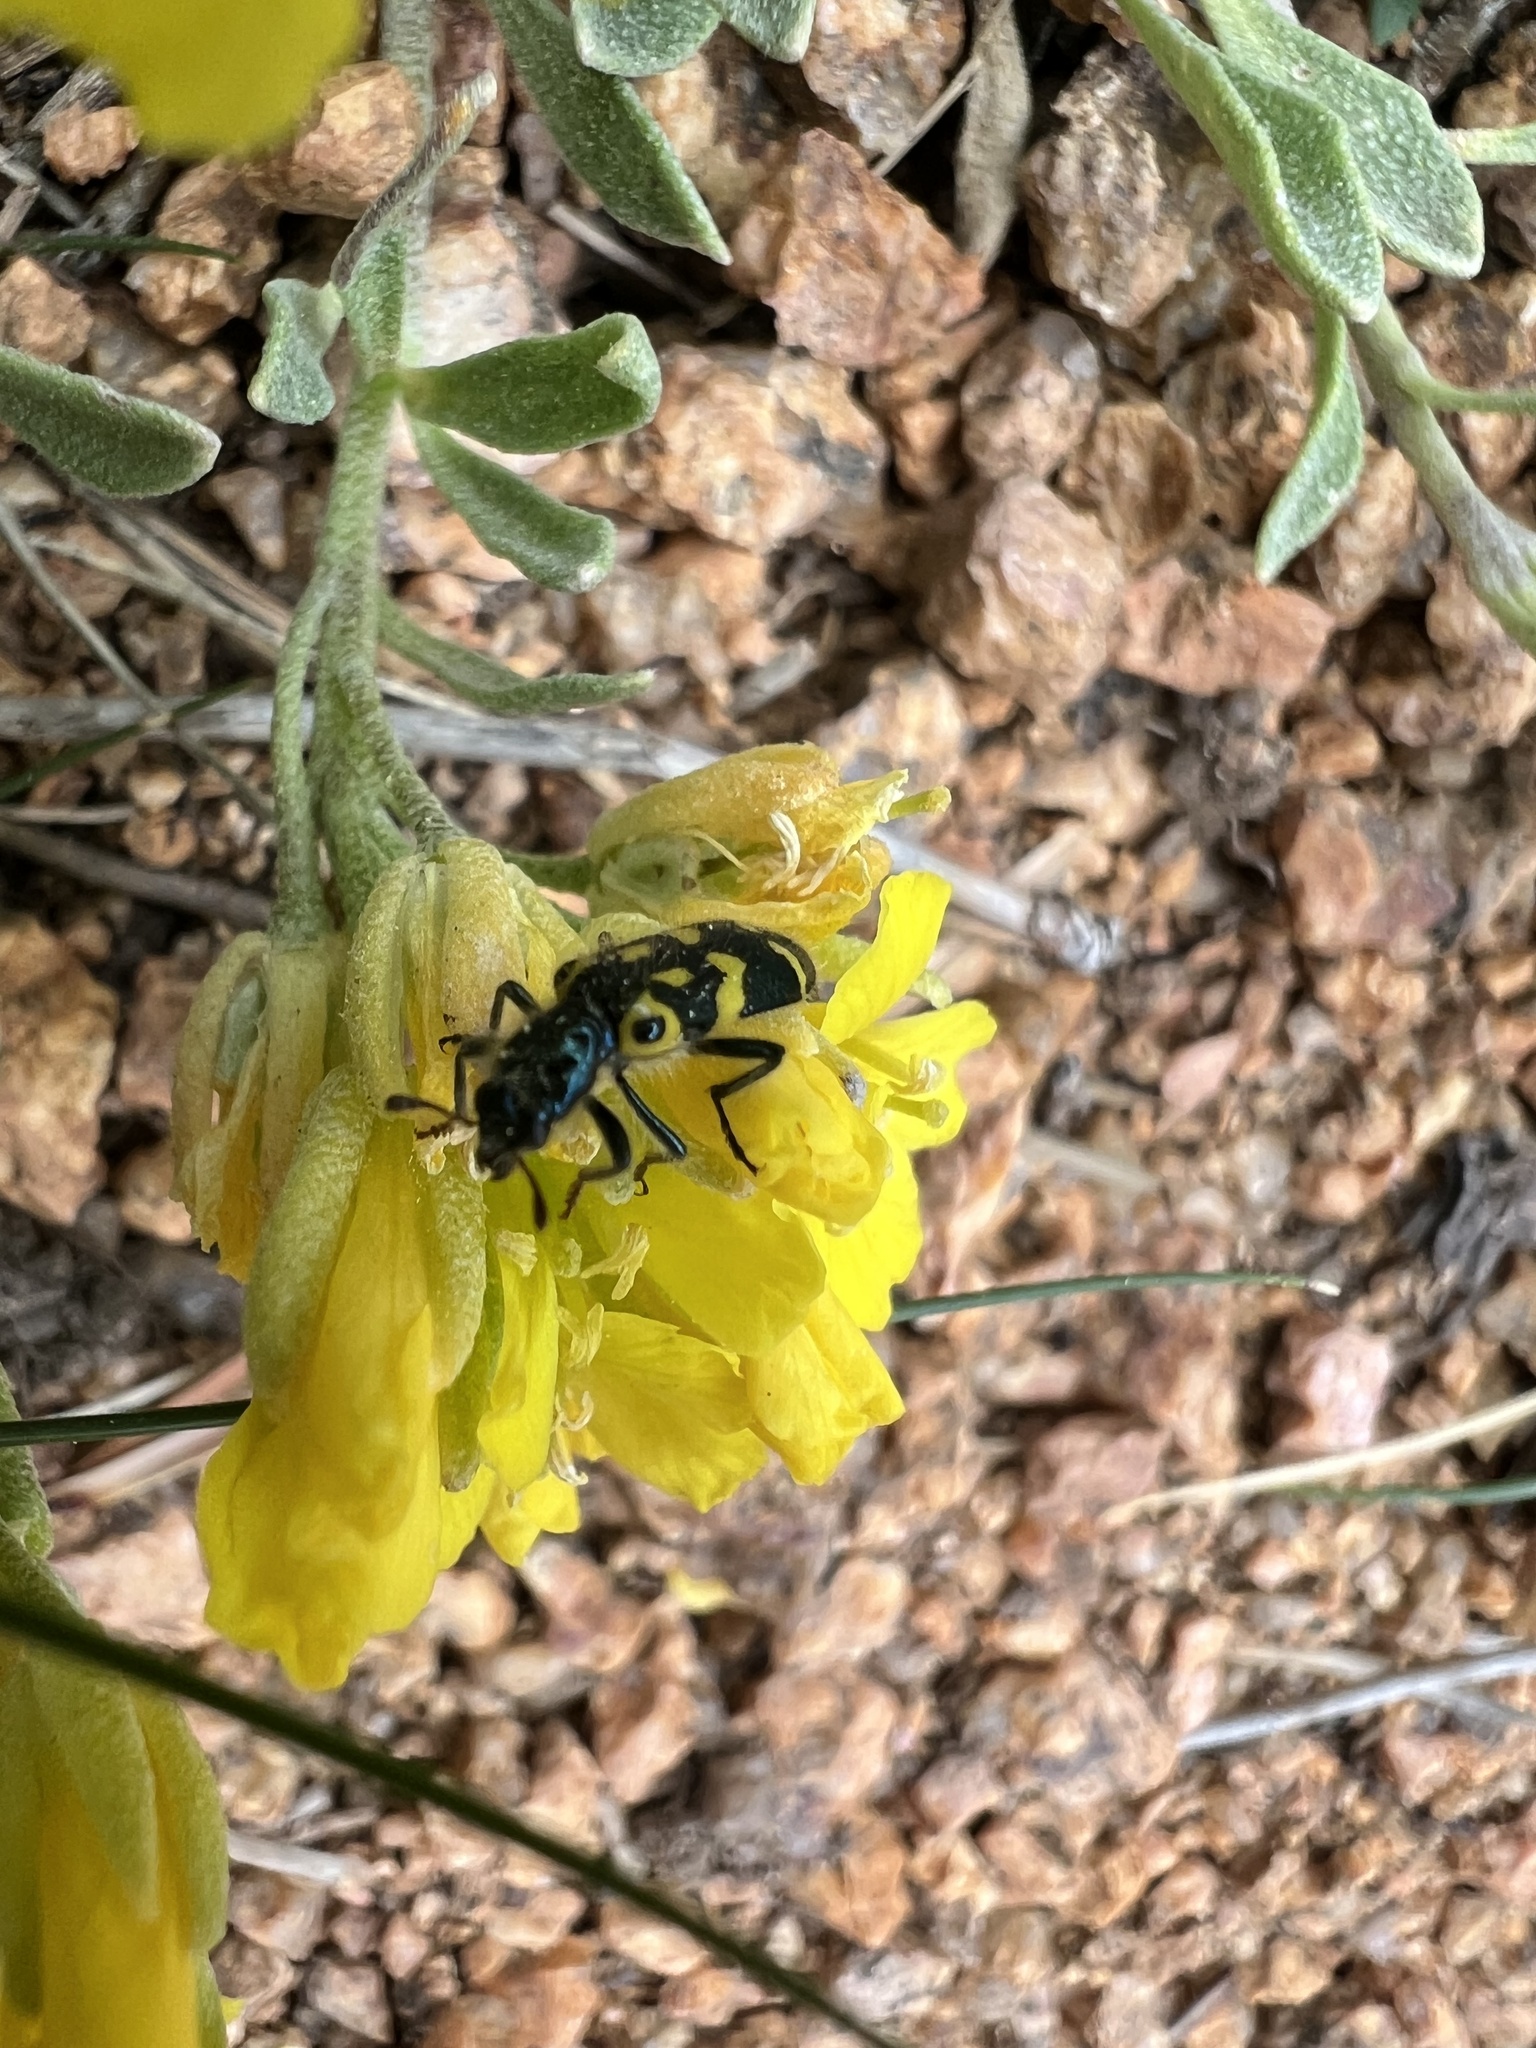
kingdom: Animalia
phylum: Arthropoda
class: Insecta
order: Coleoptera
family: Cleridae
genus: Trichodes
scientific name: Trichodes ornatus
